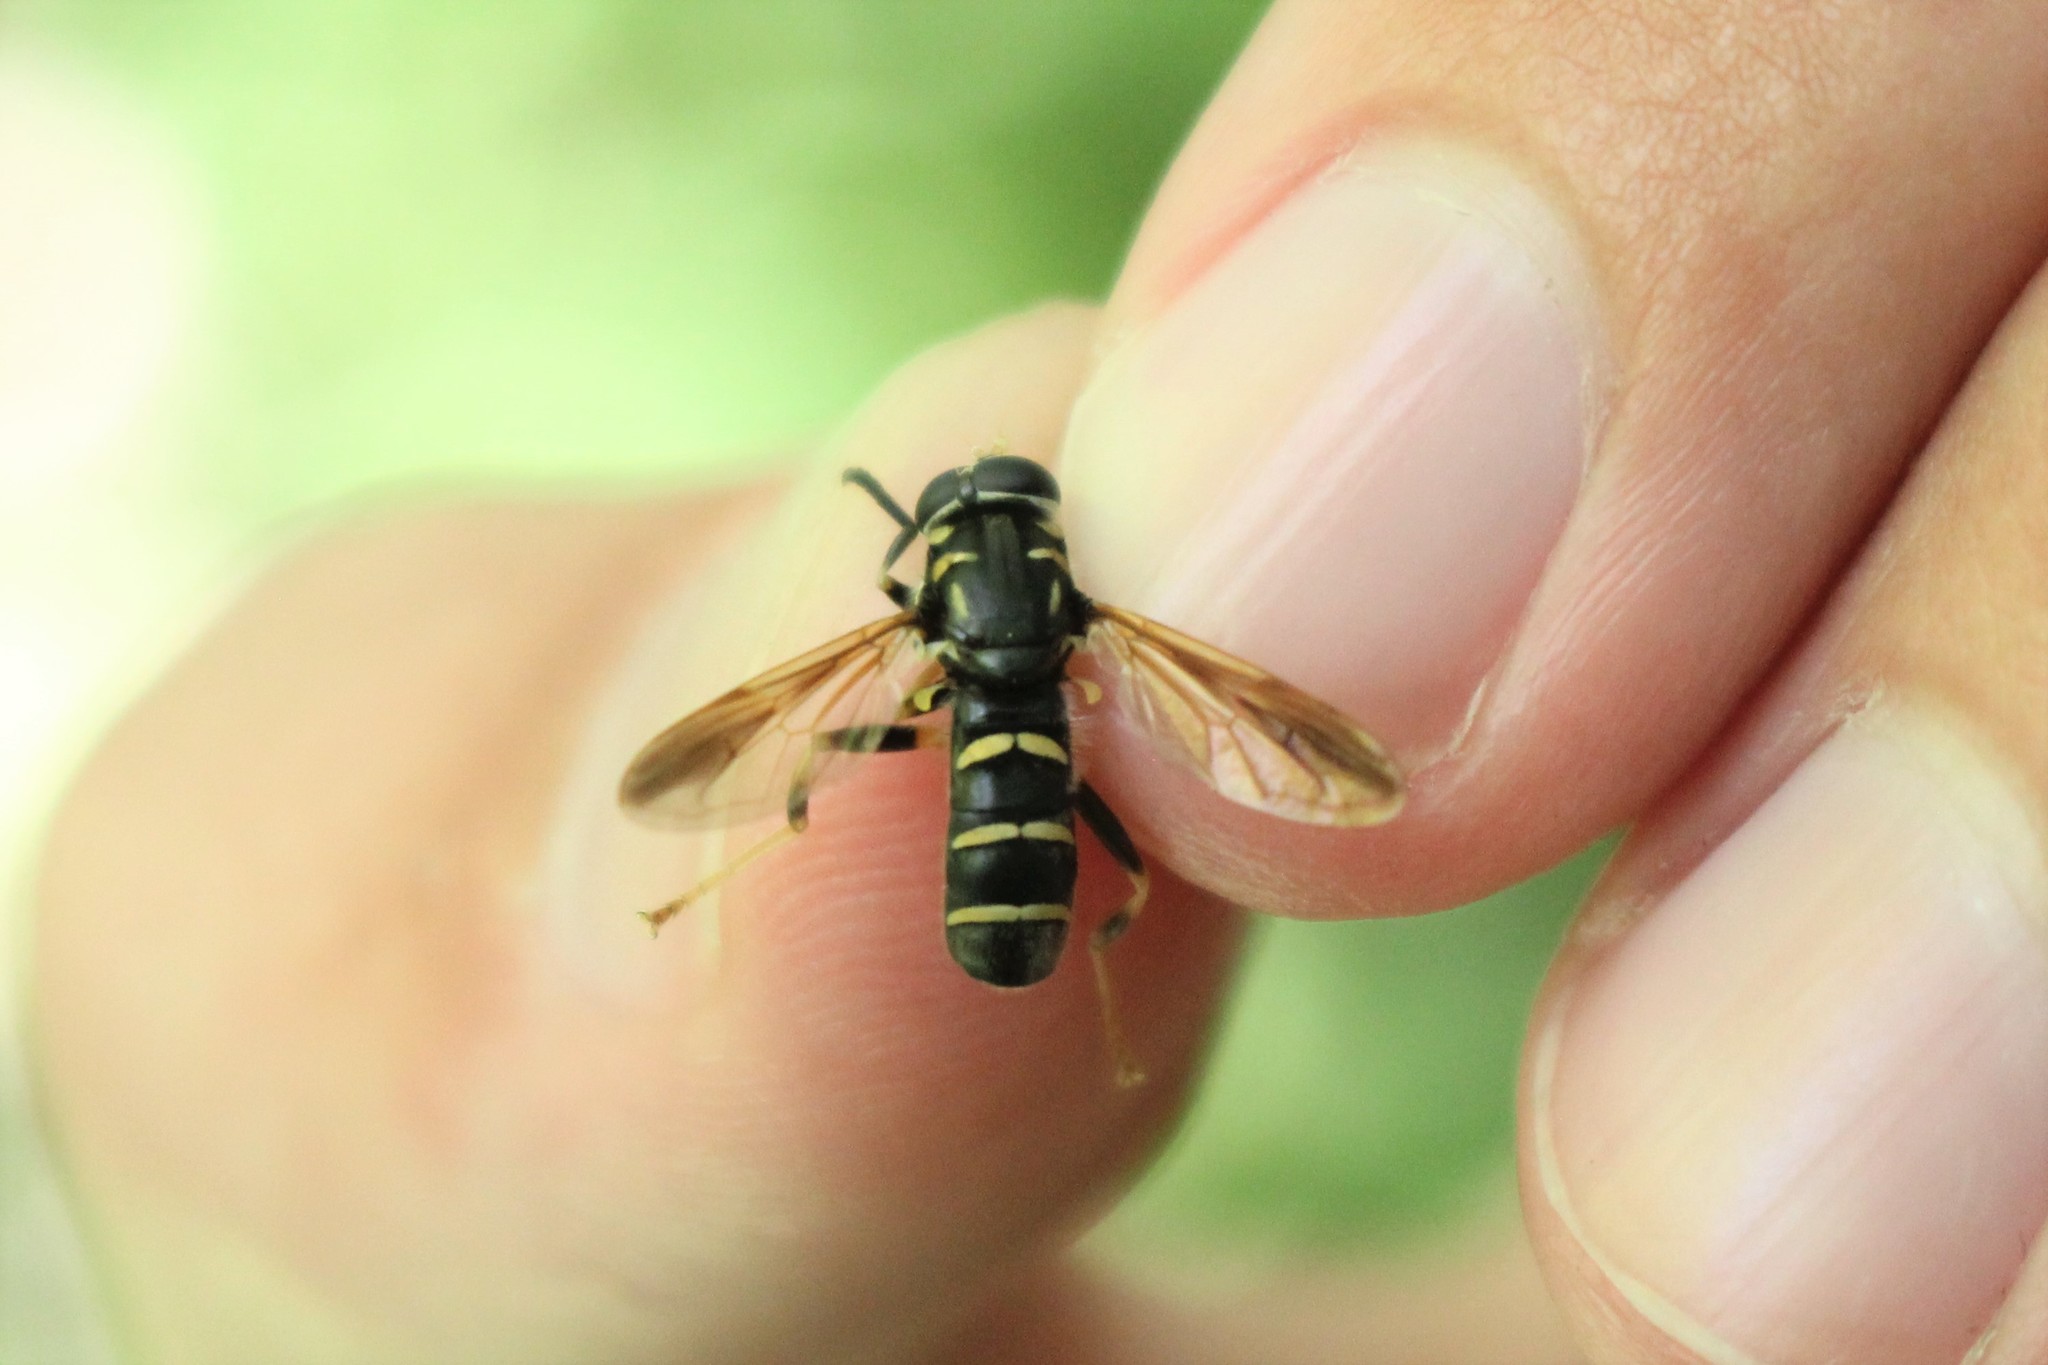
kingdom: Animalia
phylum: Arthropoda
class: Insecta
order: Diptera
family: Syrphidae
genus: Temnostoma
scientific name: Temnostoma balyras
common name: Yellow-haired falsehorn
